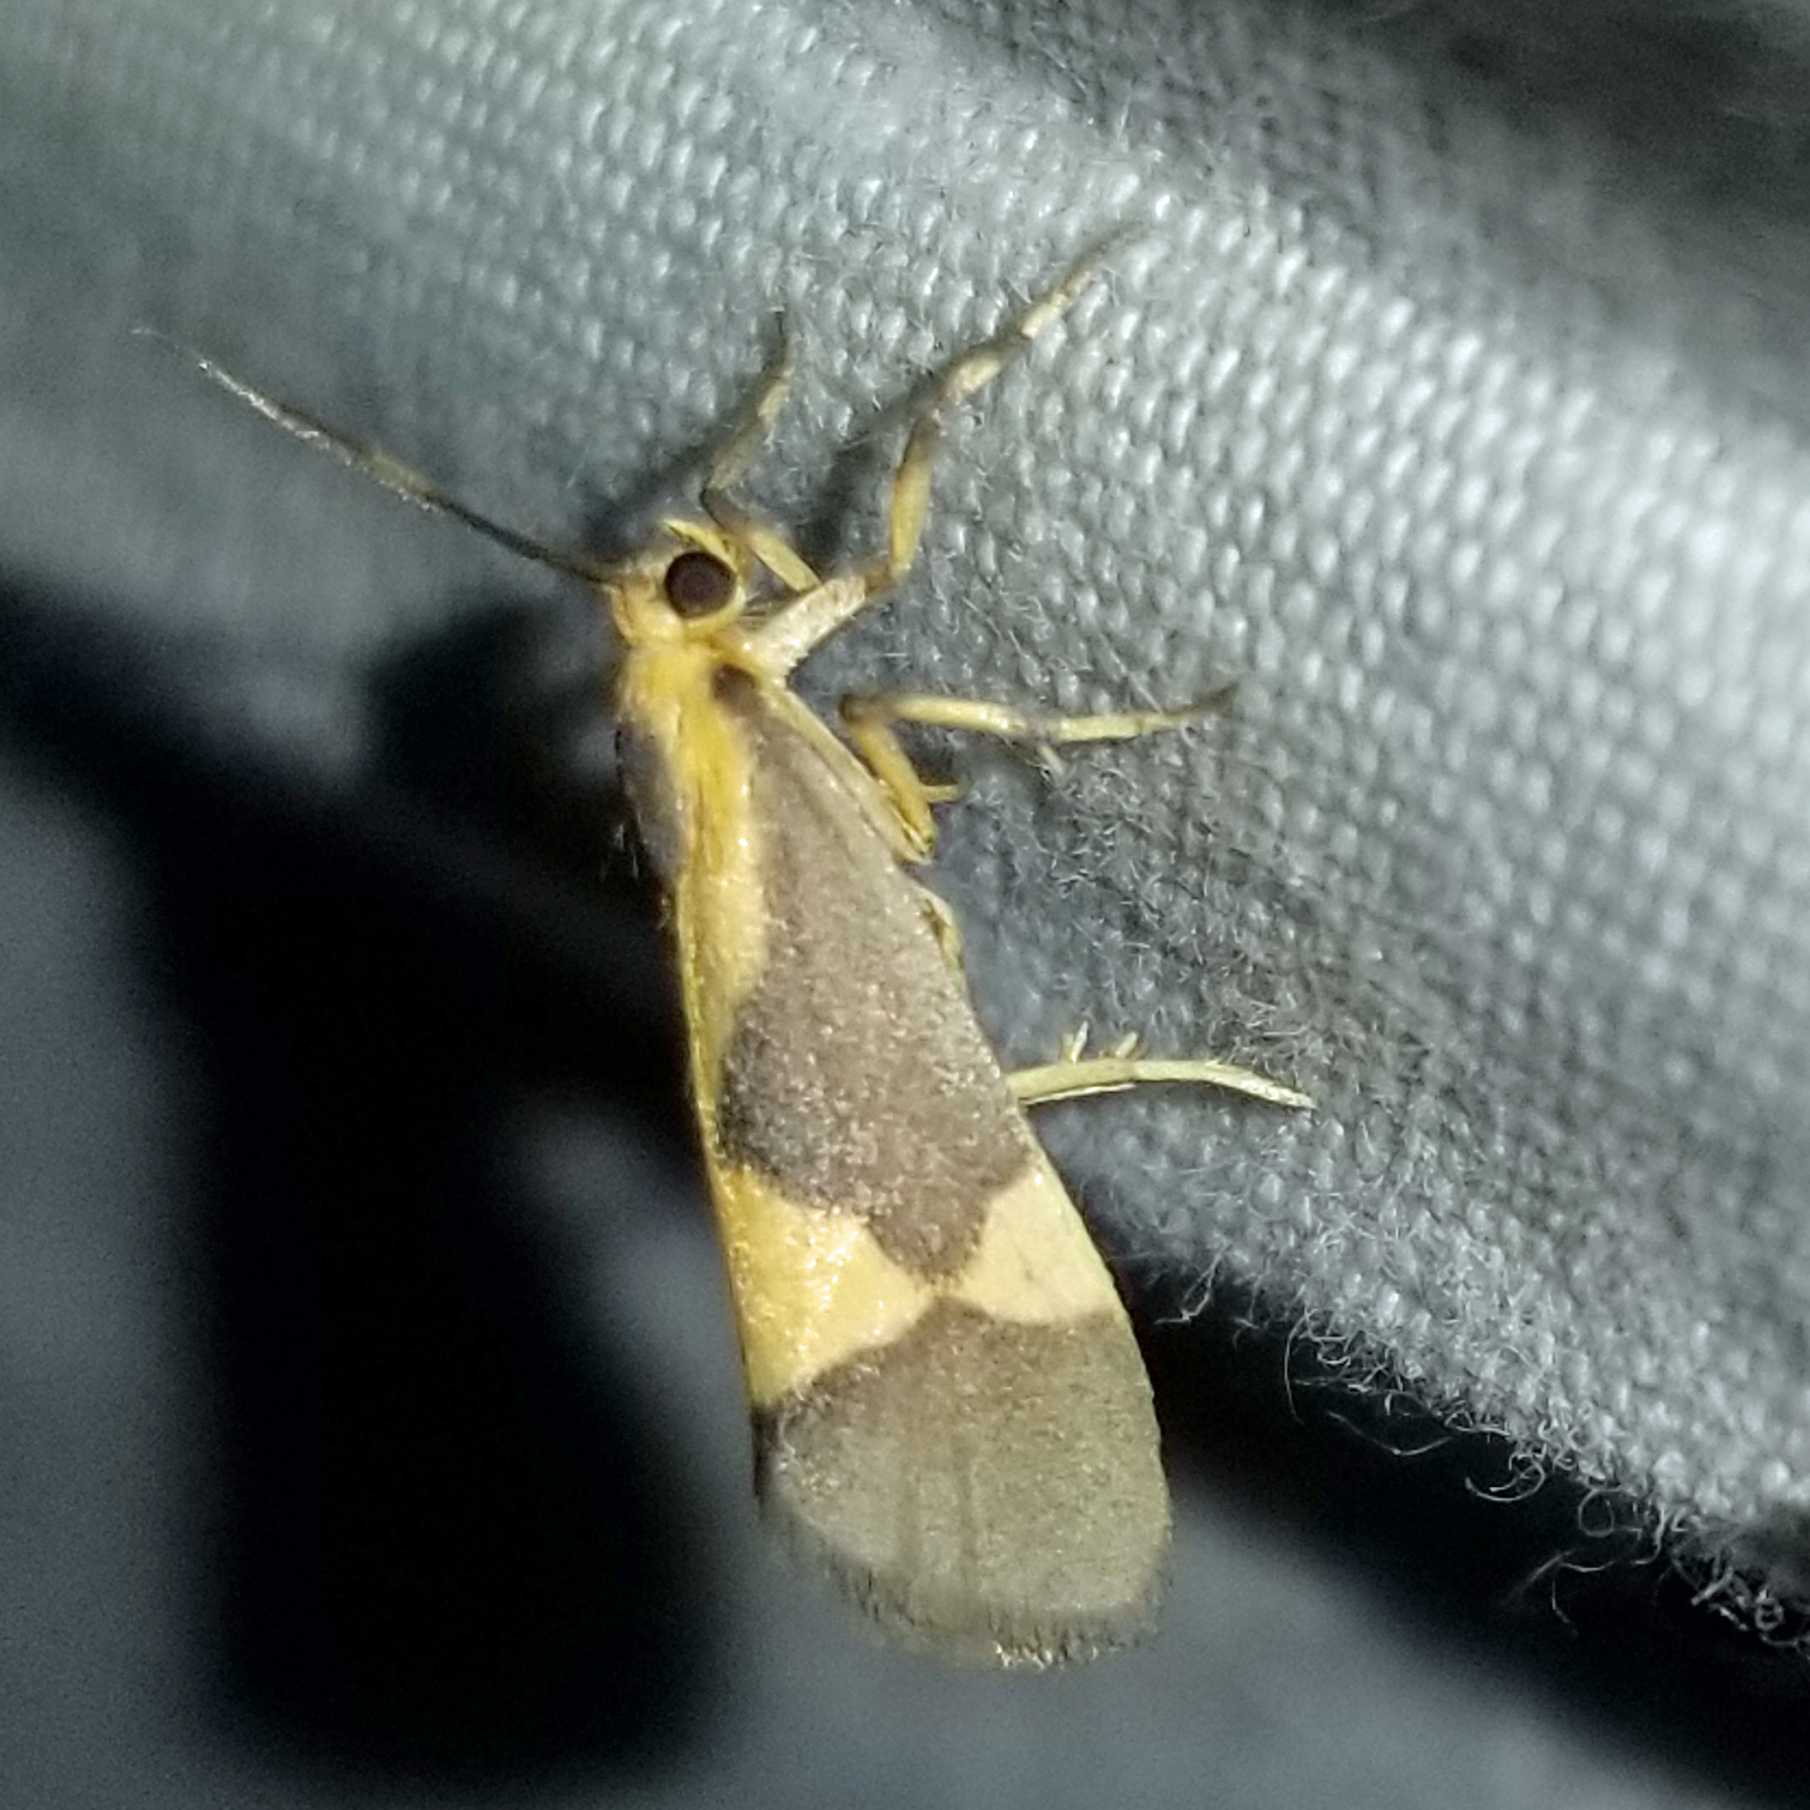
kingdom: Animalia
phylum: Arthropoda
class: Insecta
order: Lepidoptera
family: Erebidae
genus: Cisthene
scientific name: Cisthene unifascia
